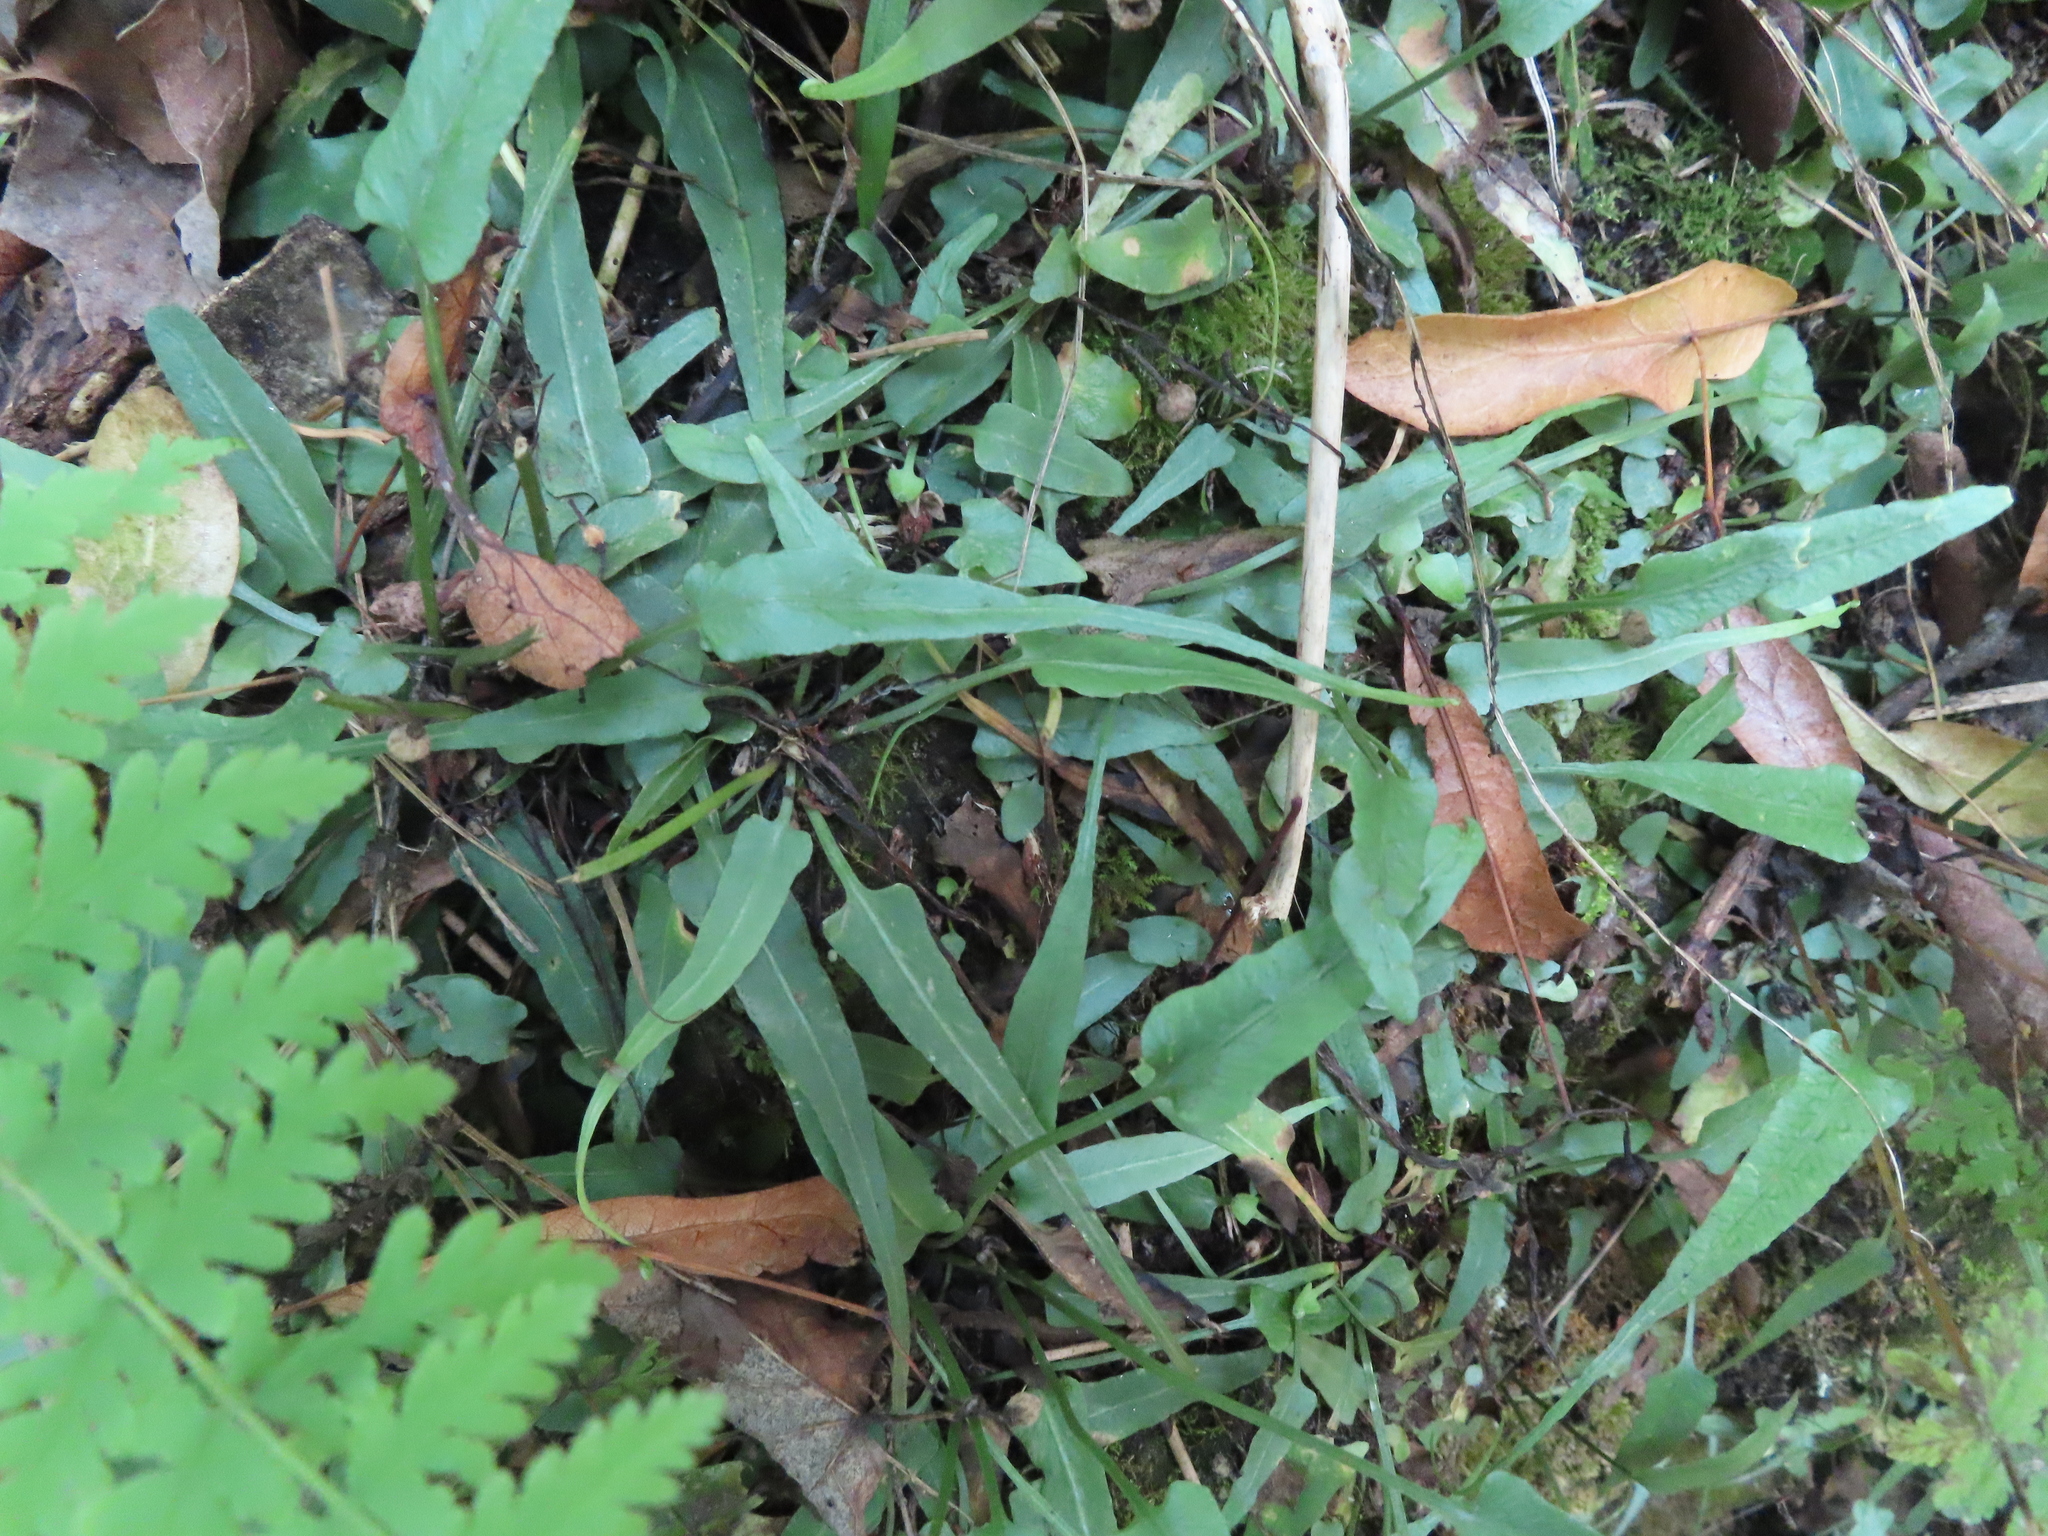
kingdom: Plantae
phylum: Tracheophyta
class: Polypodiopsida
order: Polypodiales
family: Aspleniaceae
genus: Asplenium
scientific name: Asplenium rhizophyllum
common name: Walking fern
